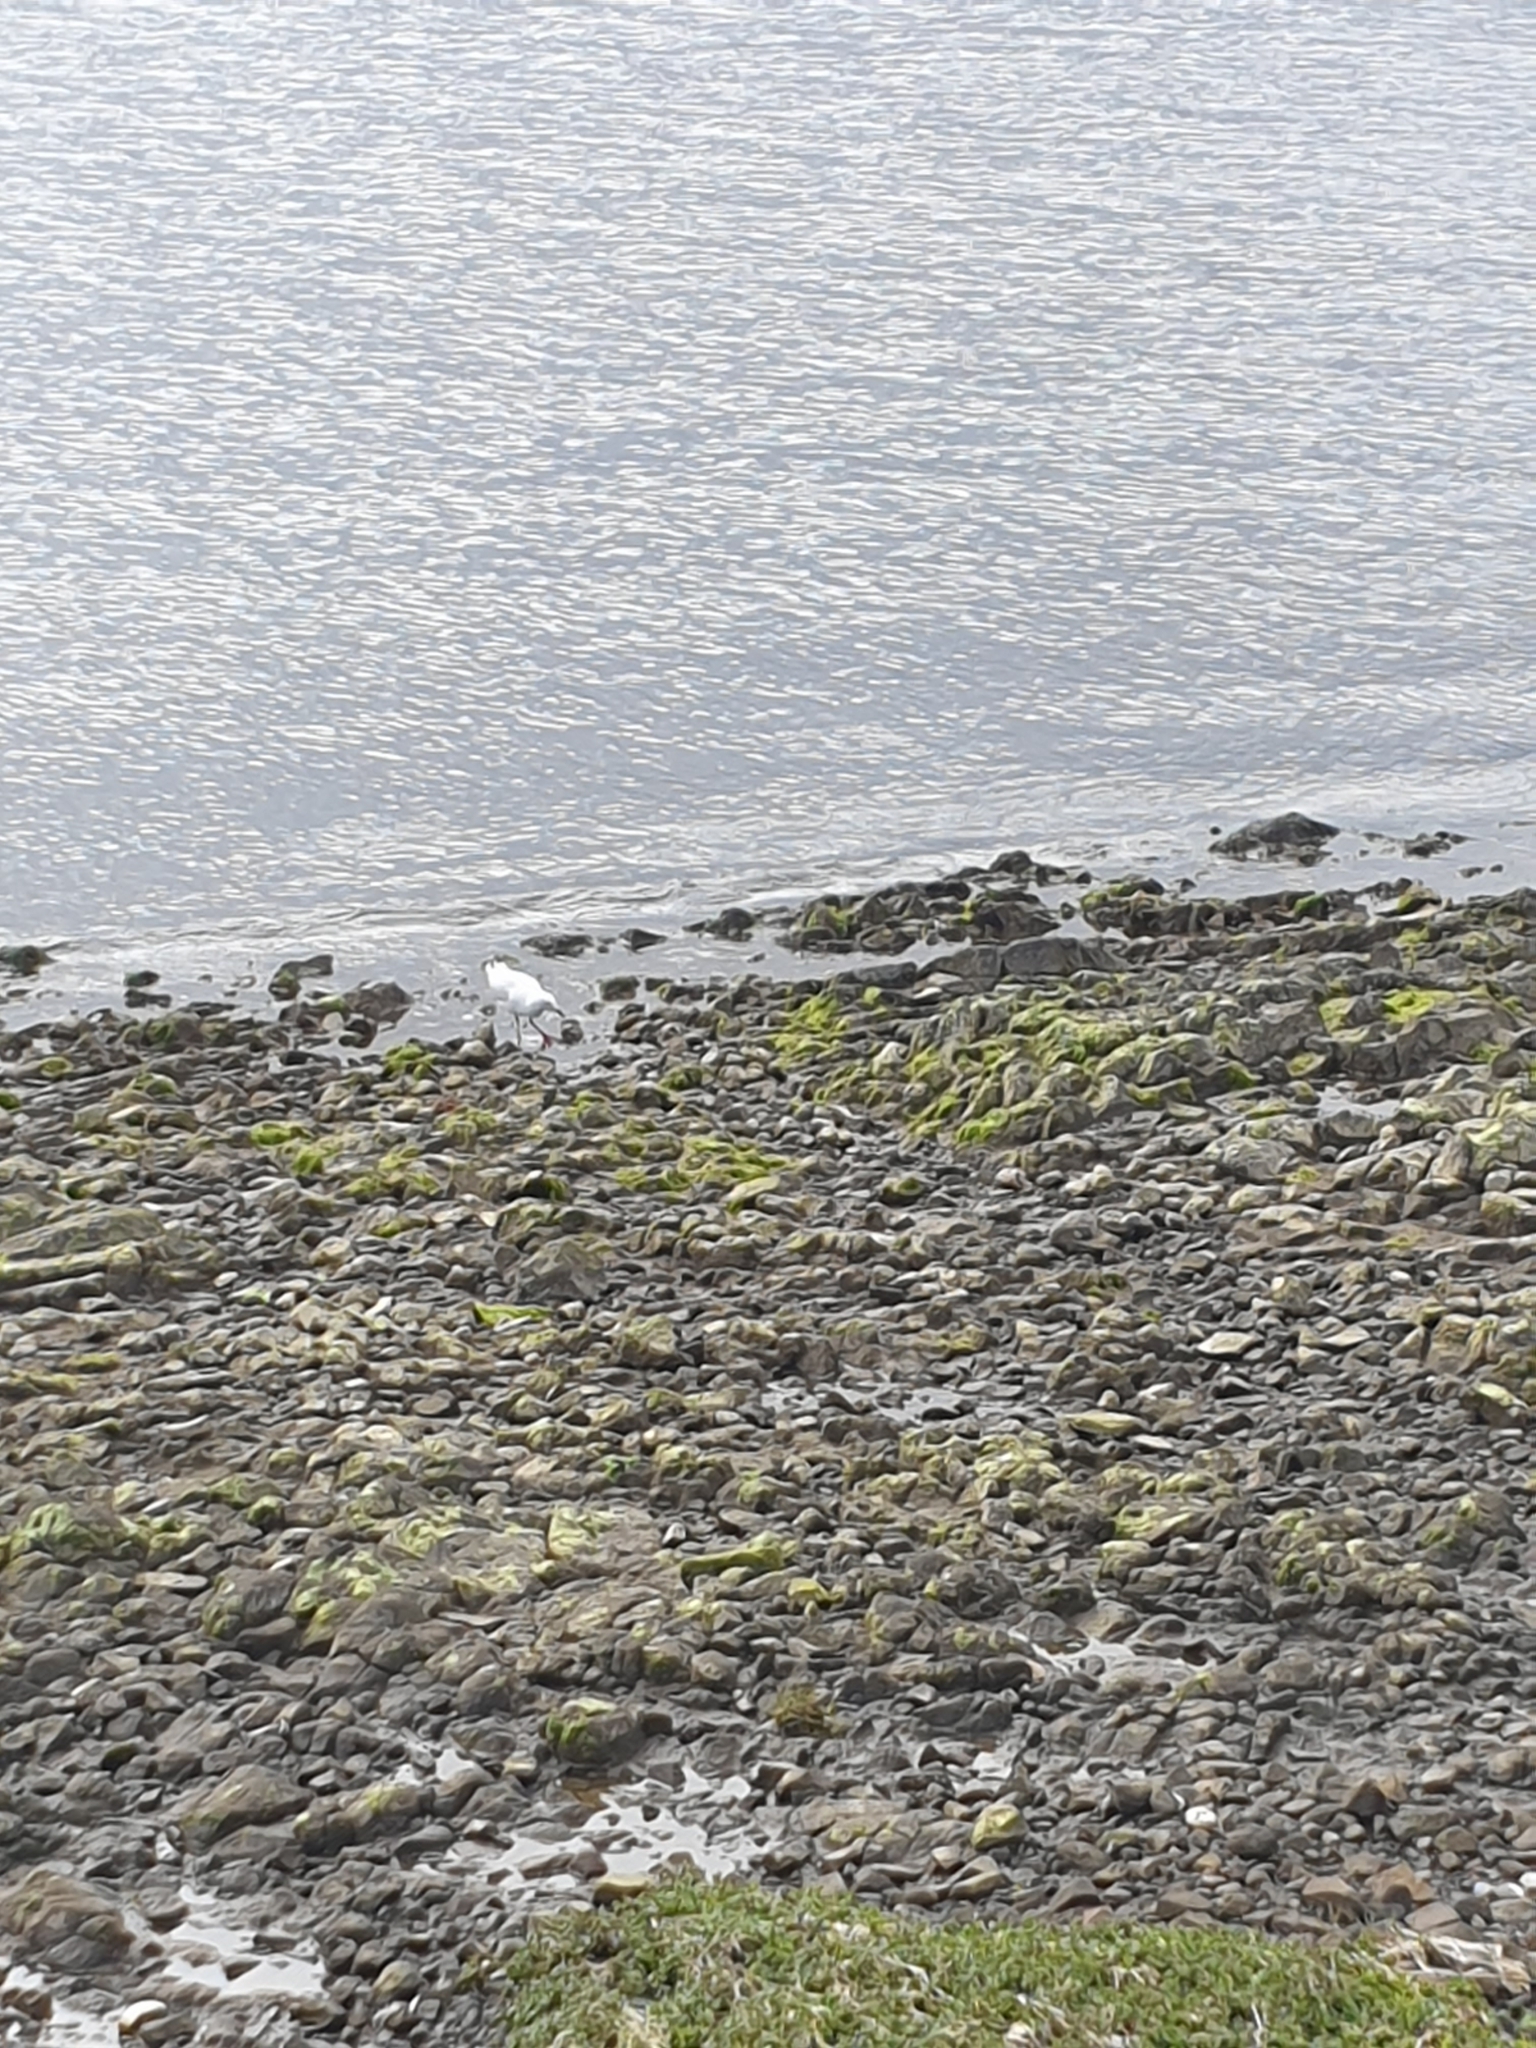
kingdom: Animalia
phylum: Chordata
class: Aves
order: Charadriiformes
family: Laridae
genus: Chroicocephalus
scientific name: Chroicocephalus novaehollandiae
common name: Silver gull
